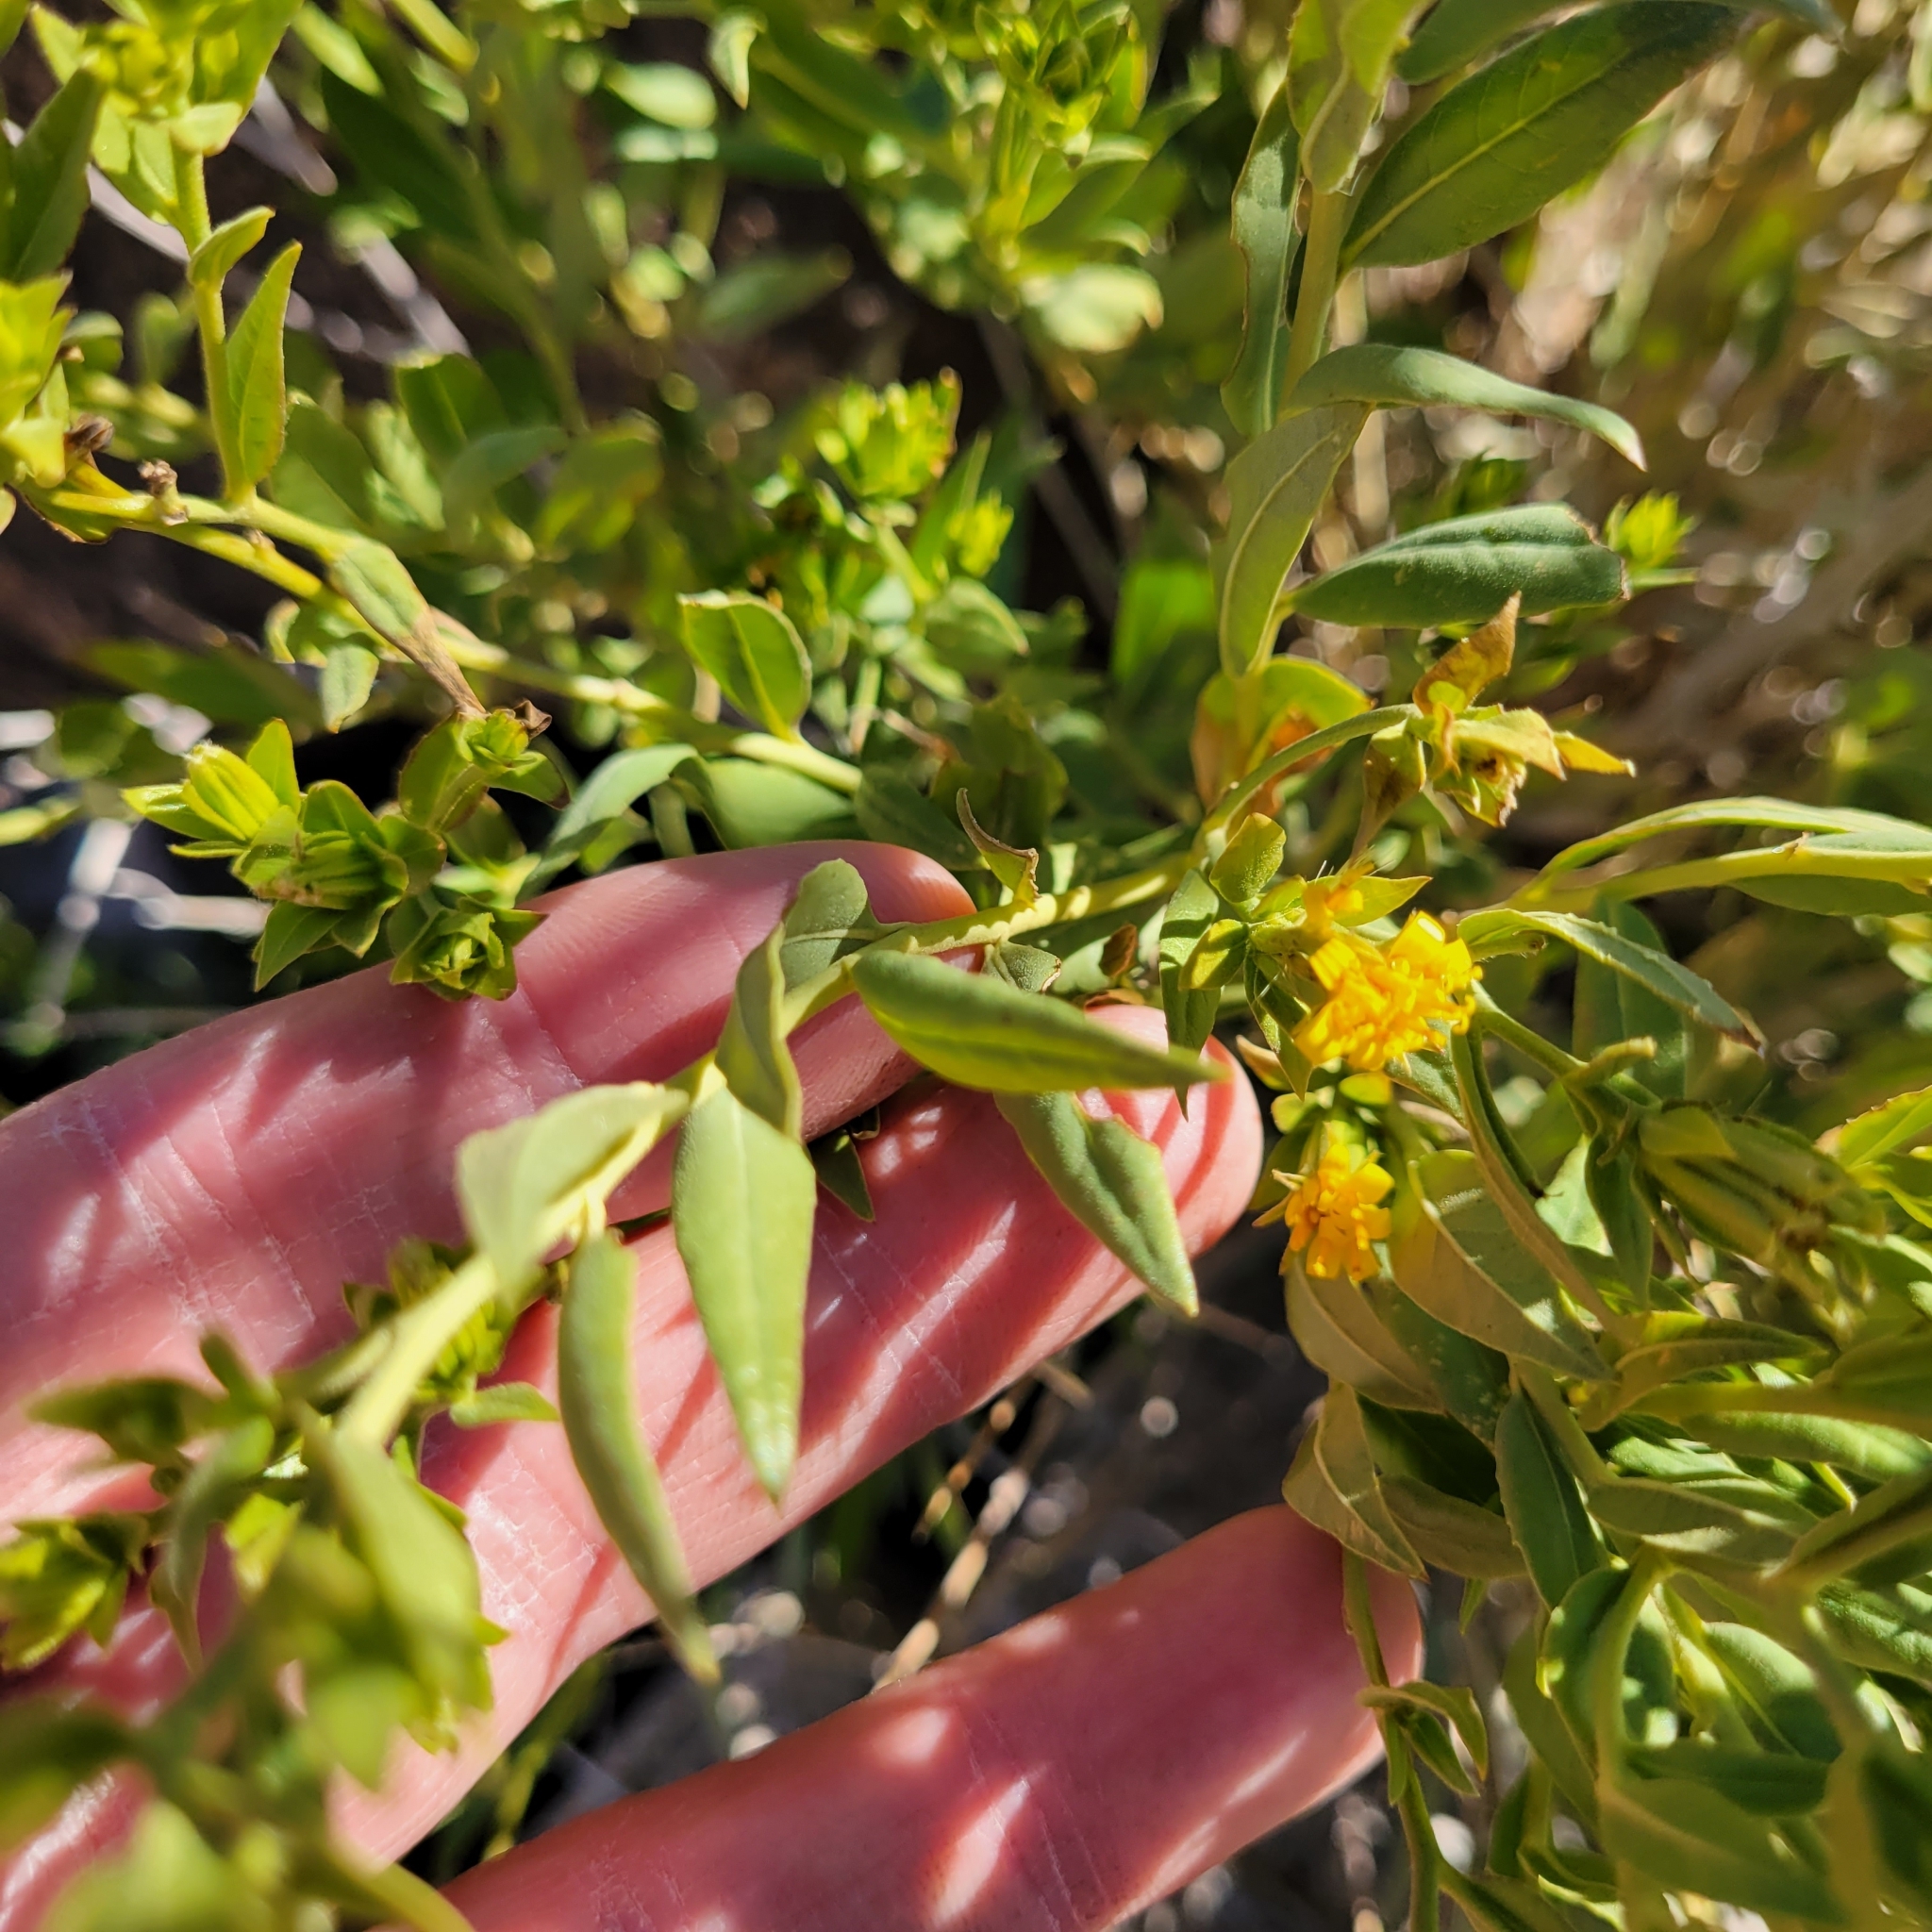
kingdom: Plantae
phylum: Tracheophyta
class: Magnoliopsida
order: Asterales
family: Asteraceae
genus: Trixis
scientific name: Trixis californica
